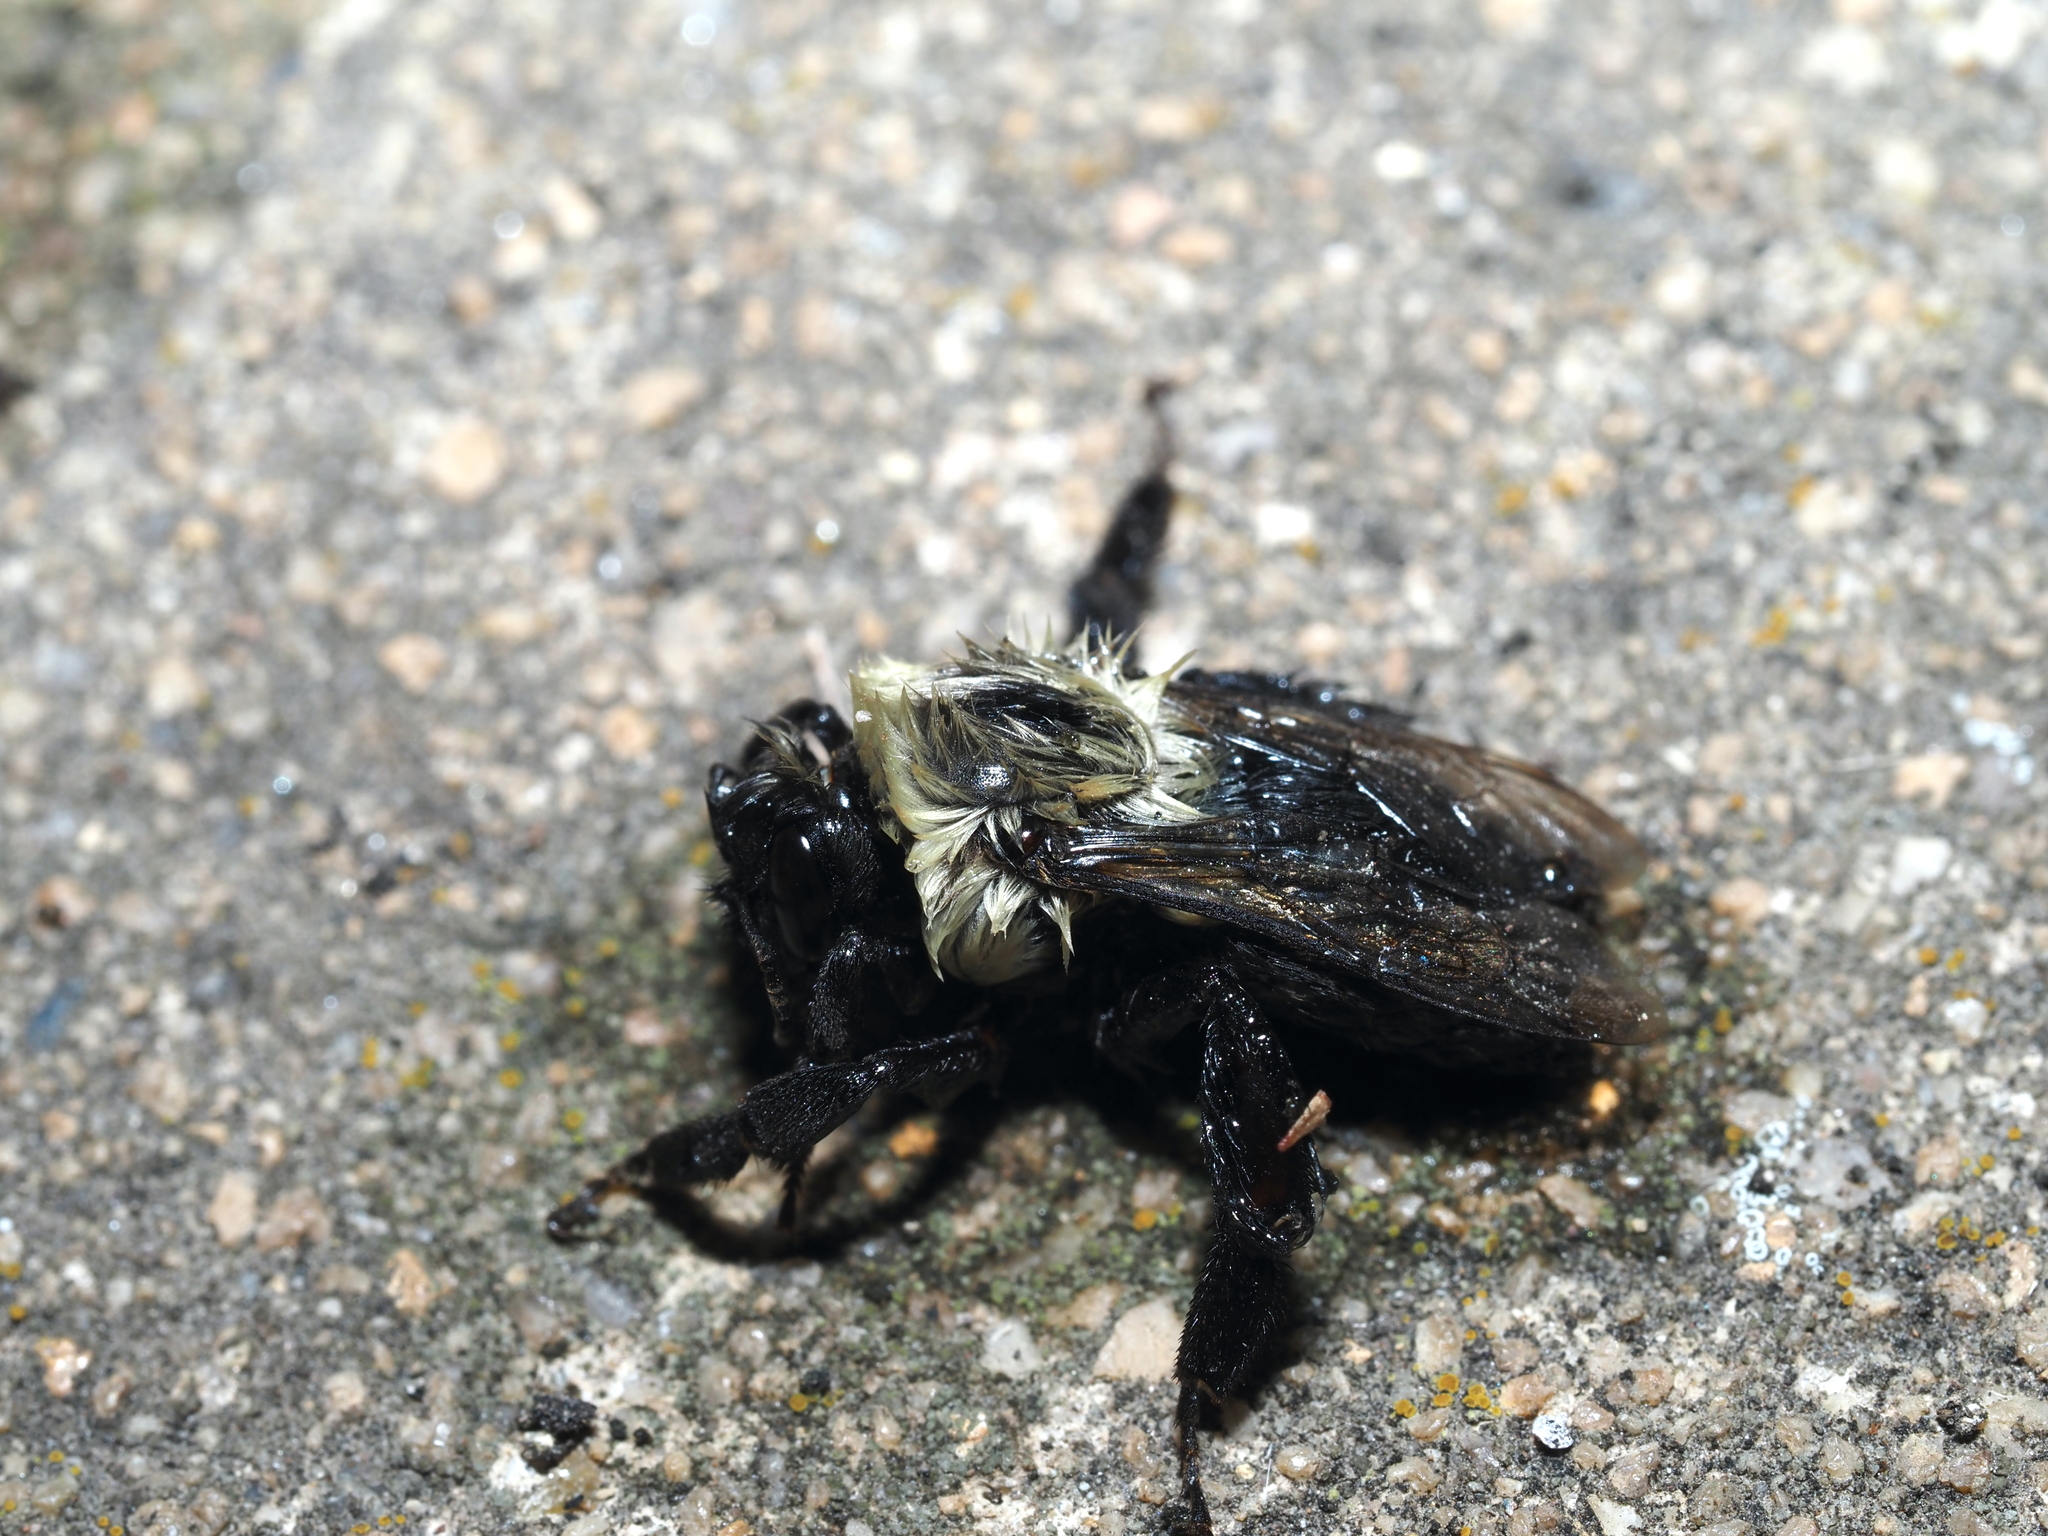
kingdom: Animalia
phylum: Arthropoda
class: Insecta
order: Hymenoptera
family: Apidae
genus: Bombus
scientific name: Bombus impatiens
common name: Common eastern bumble bee
